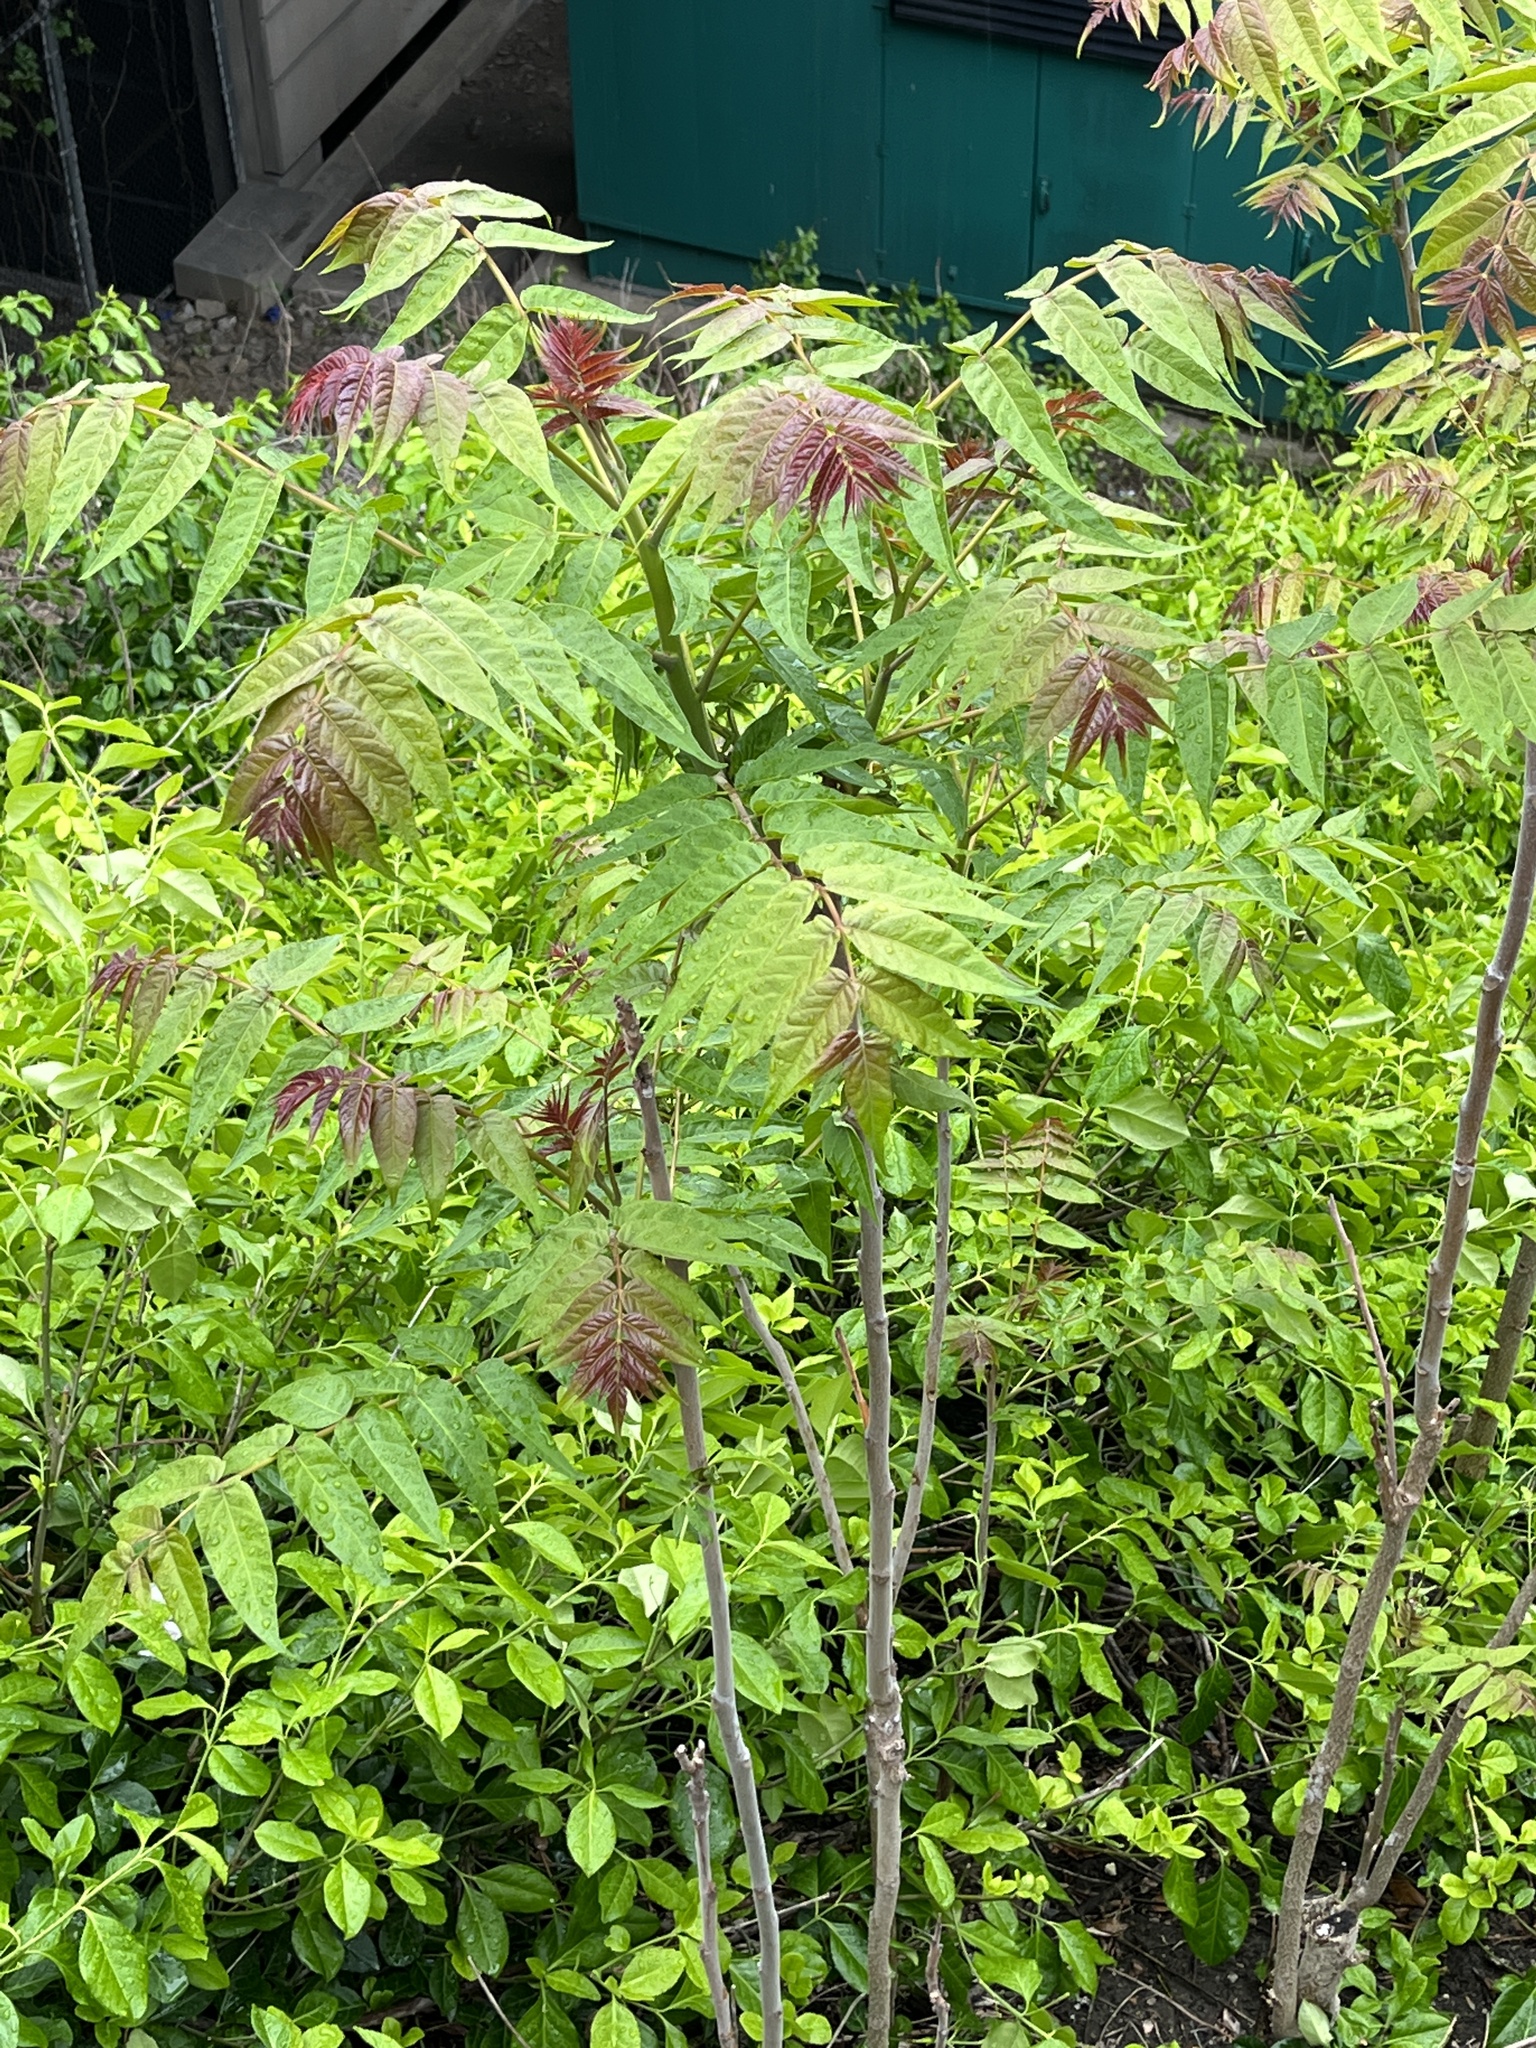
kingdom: Plantae
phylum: Tracheophyta
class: Magnoliopsida
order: Sapindales
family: Simaroubaceae
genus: Ailanthus
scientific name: Ailanthus altissima
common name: Tree-of-heaven
